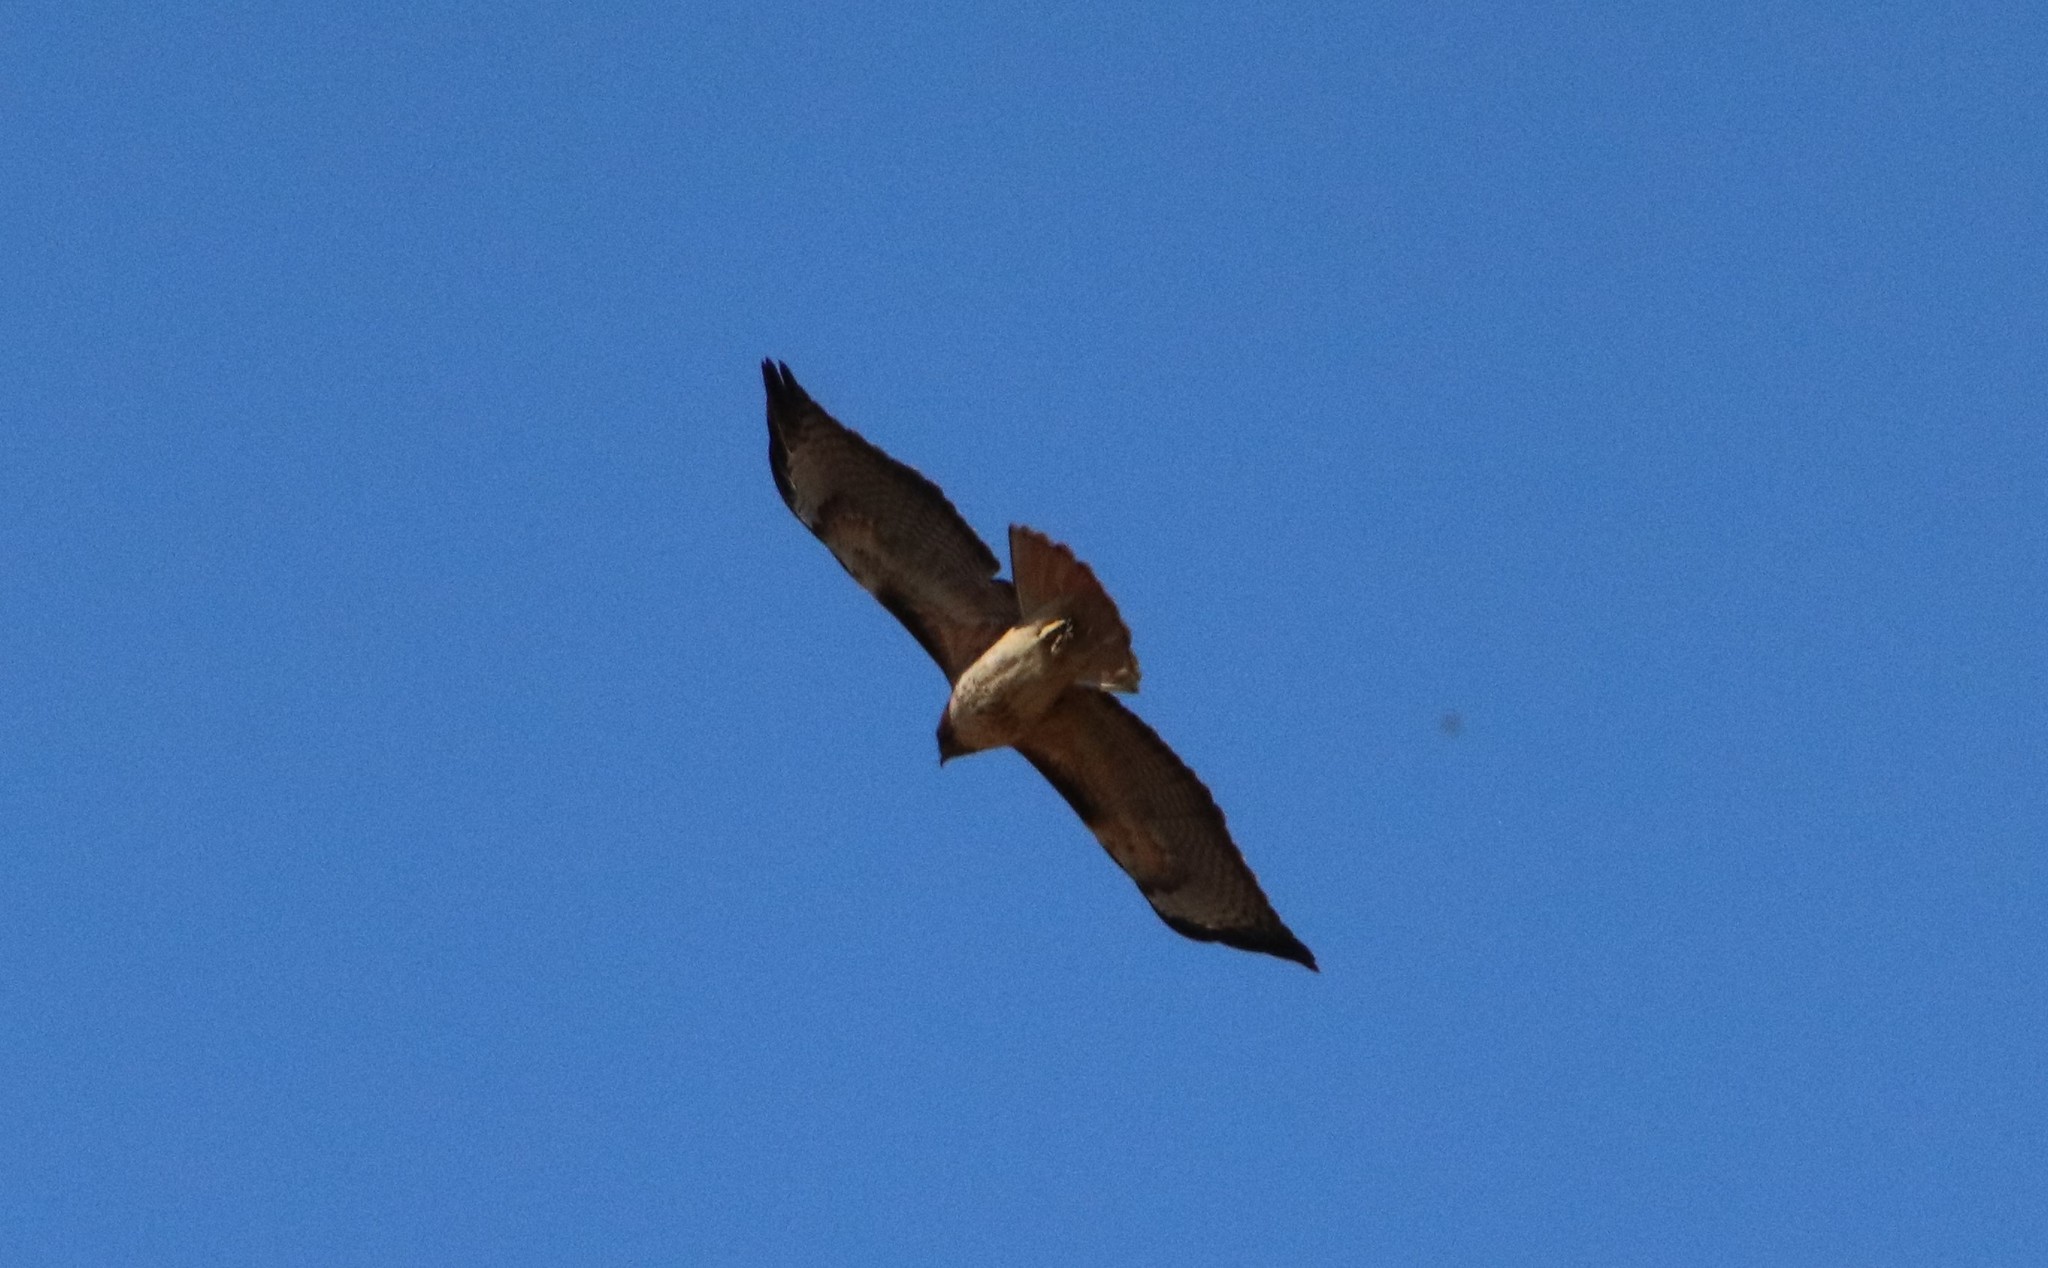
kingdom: Animalia
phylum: Chordata
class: Aves
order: Accipitriformes
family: Accipitridae
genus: Buteo
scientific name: Buteo jamaicensis
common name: Red-tailed hawk
